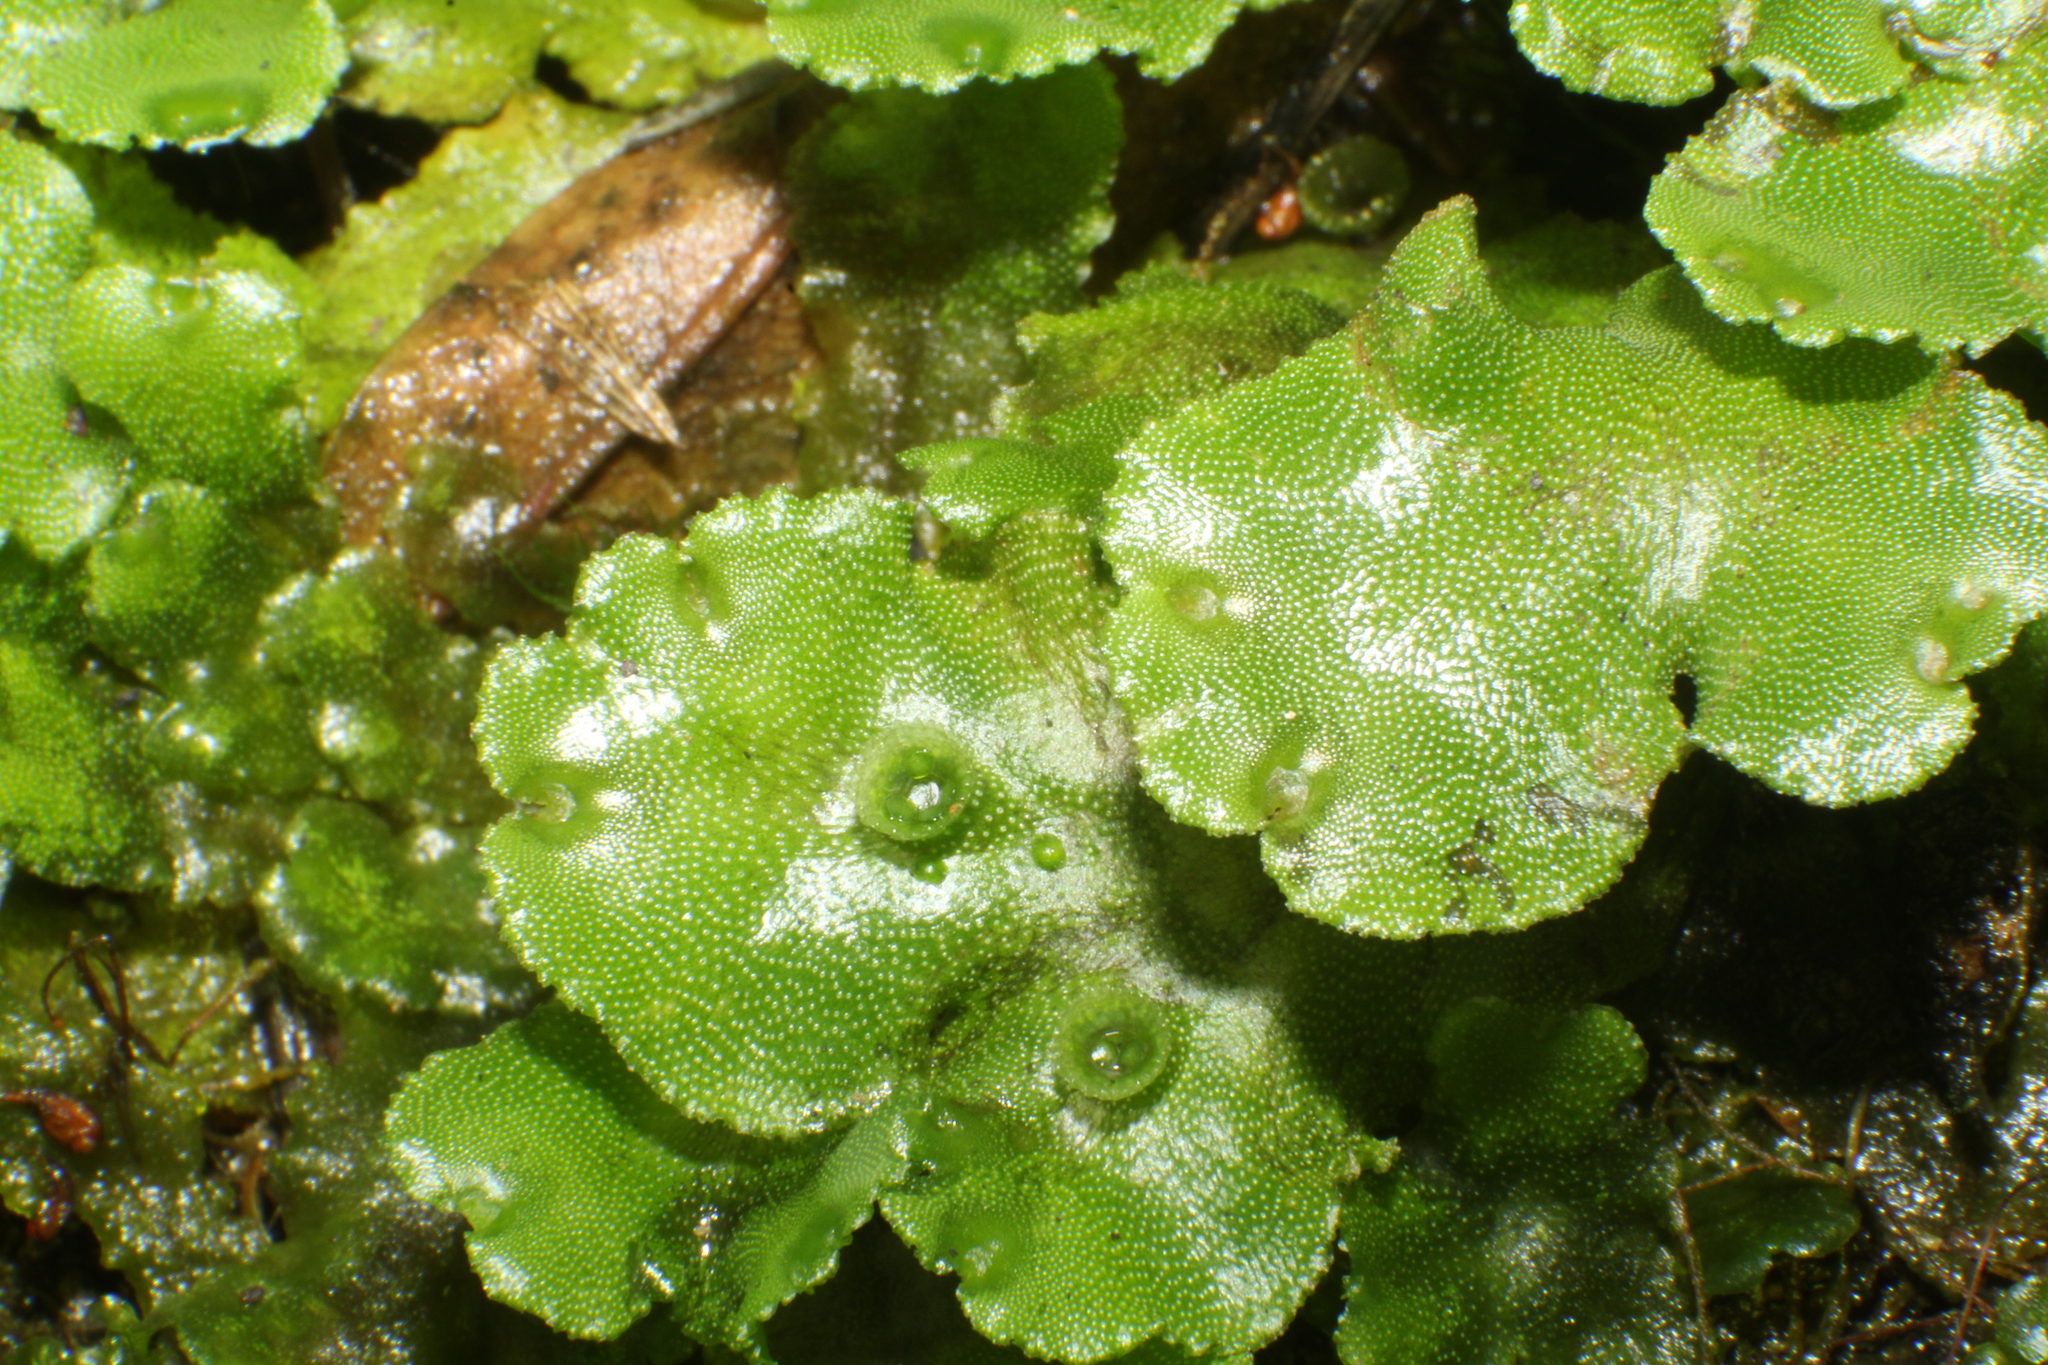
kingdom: Plantae
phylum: Marchantiophyta
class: Marchantiopsida
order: Marchantiales
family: Marchantiaceae
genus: Marchantia
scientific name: Marchantia polymorpha
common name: Common liverwort
